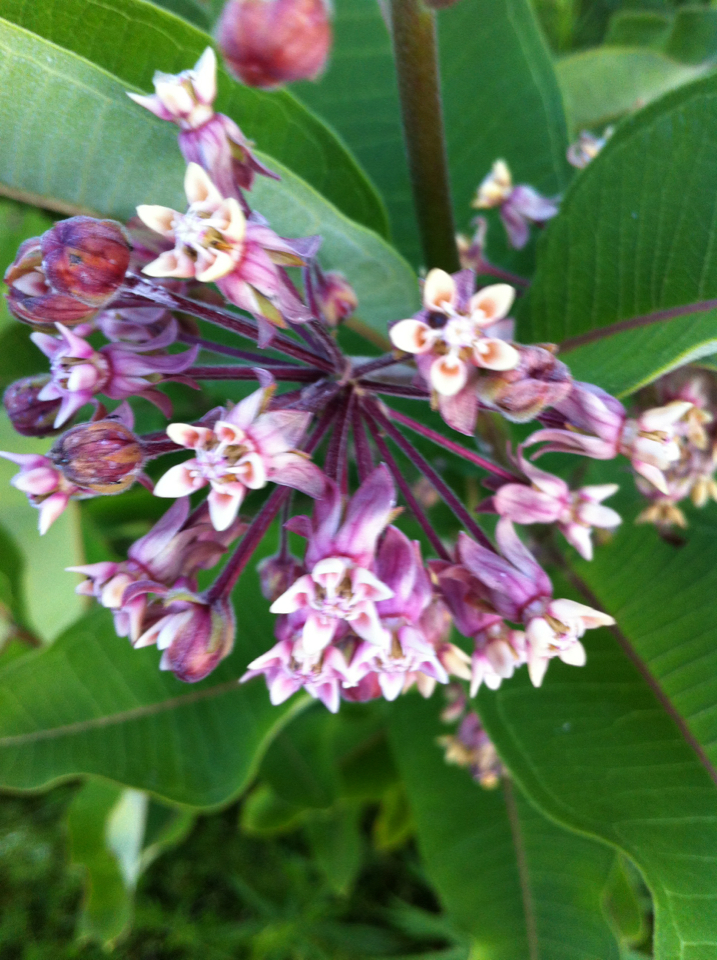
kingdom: Plantae
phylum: Tracheophyta
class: Magnoliopsida
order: Gentianales
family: Apocynaceae
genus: Asclepias
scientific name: Asclepias syriaca
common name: Common milkweed
